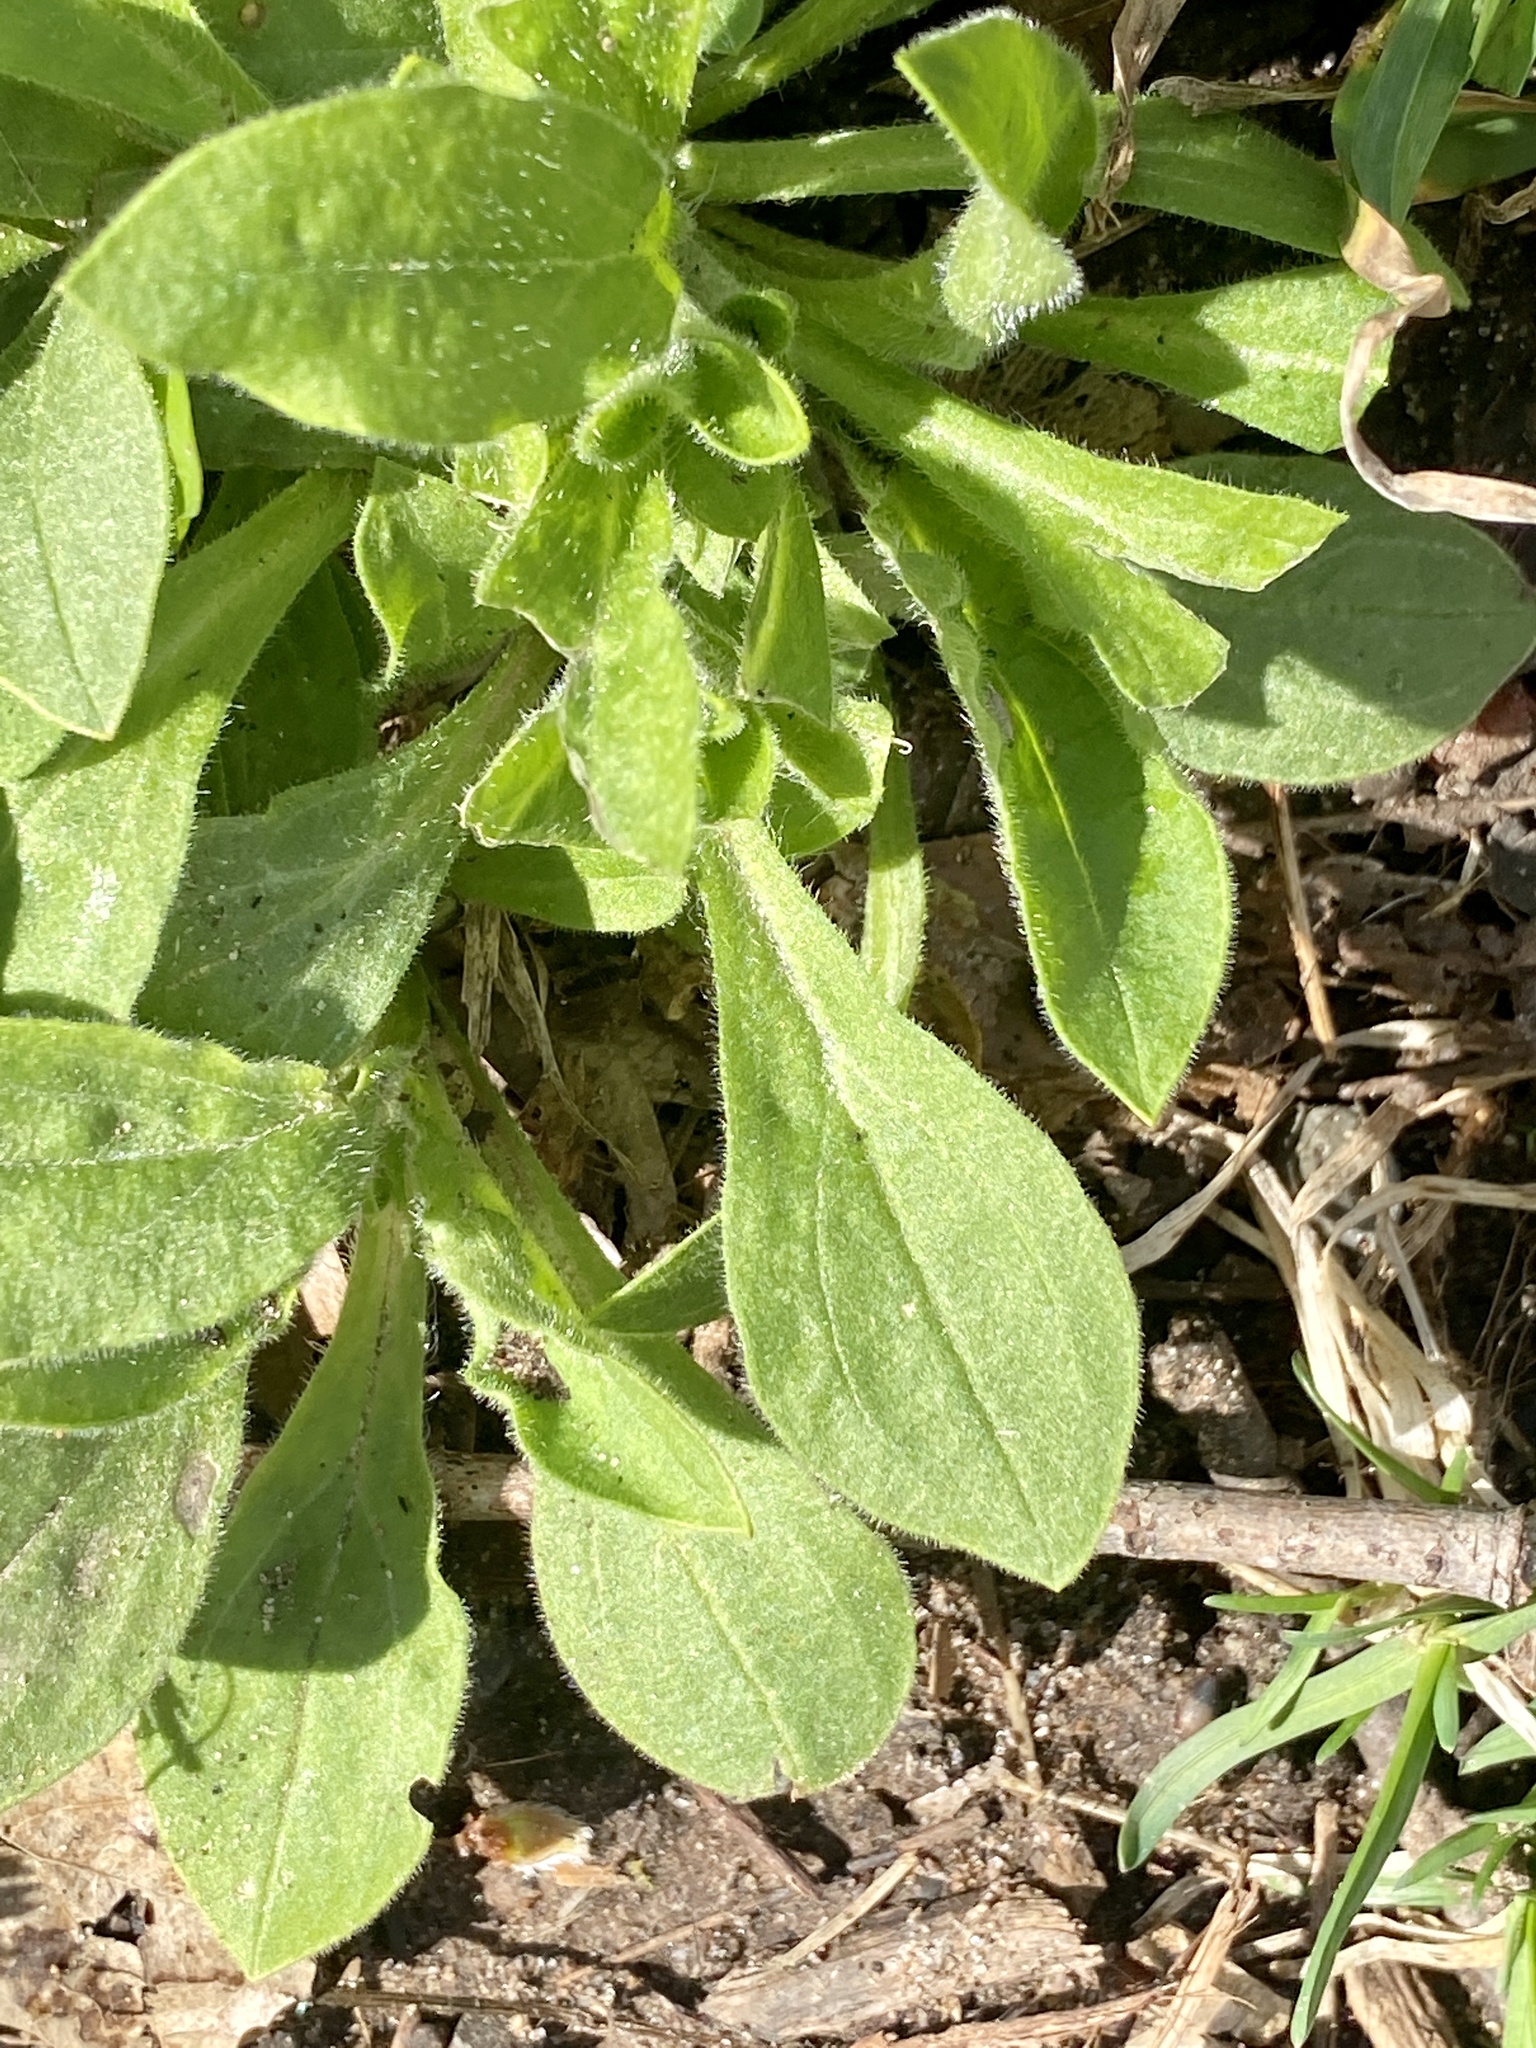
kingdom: Plantae
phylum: Tracheophyta
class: Magnoliopsida
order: Caryophyllales
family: Caryophyllaceae
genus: Silene
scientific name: Silene latifolia
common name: White campion
